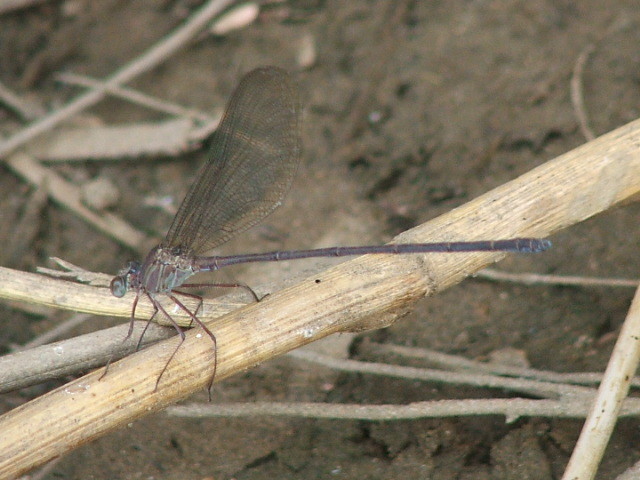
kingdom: Animalia
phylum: Arthropoda
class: Insecta
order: Odonata
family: Calopterygidae
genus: Phaon
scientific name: Phaon iridipennis
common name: Glistening demoiselle
